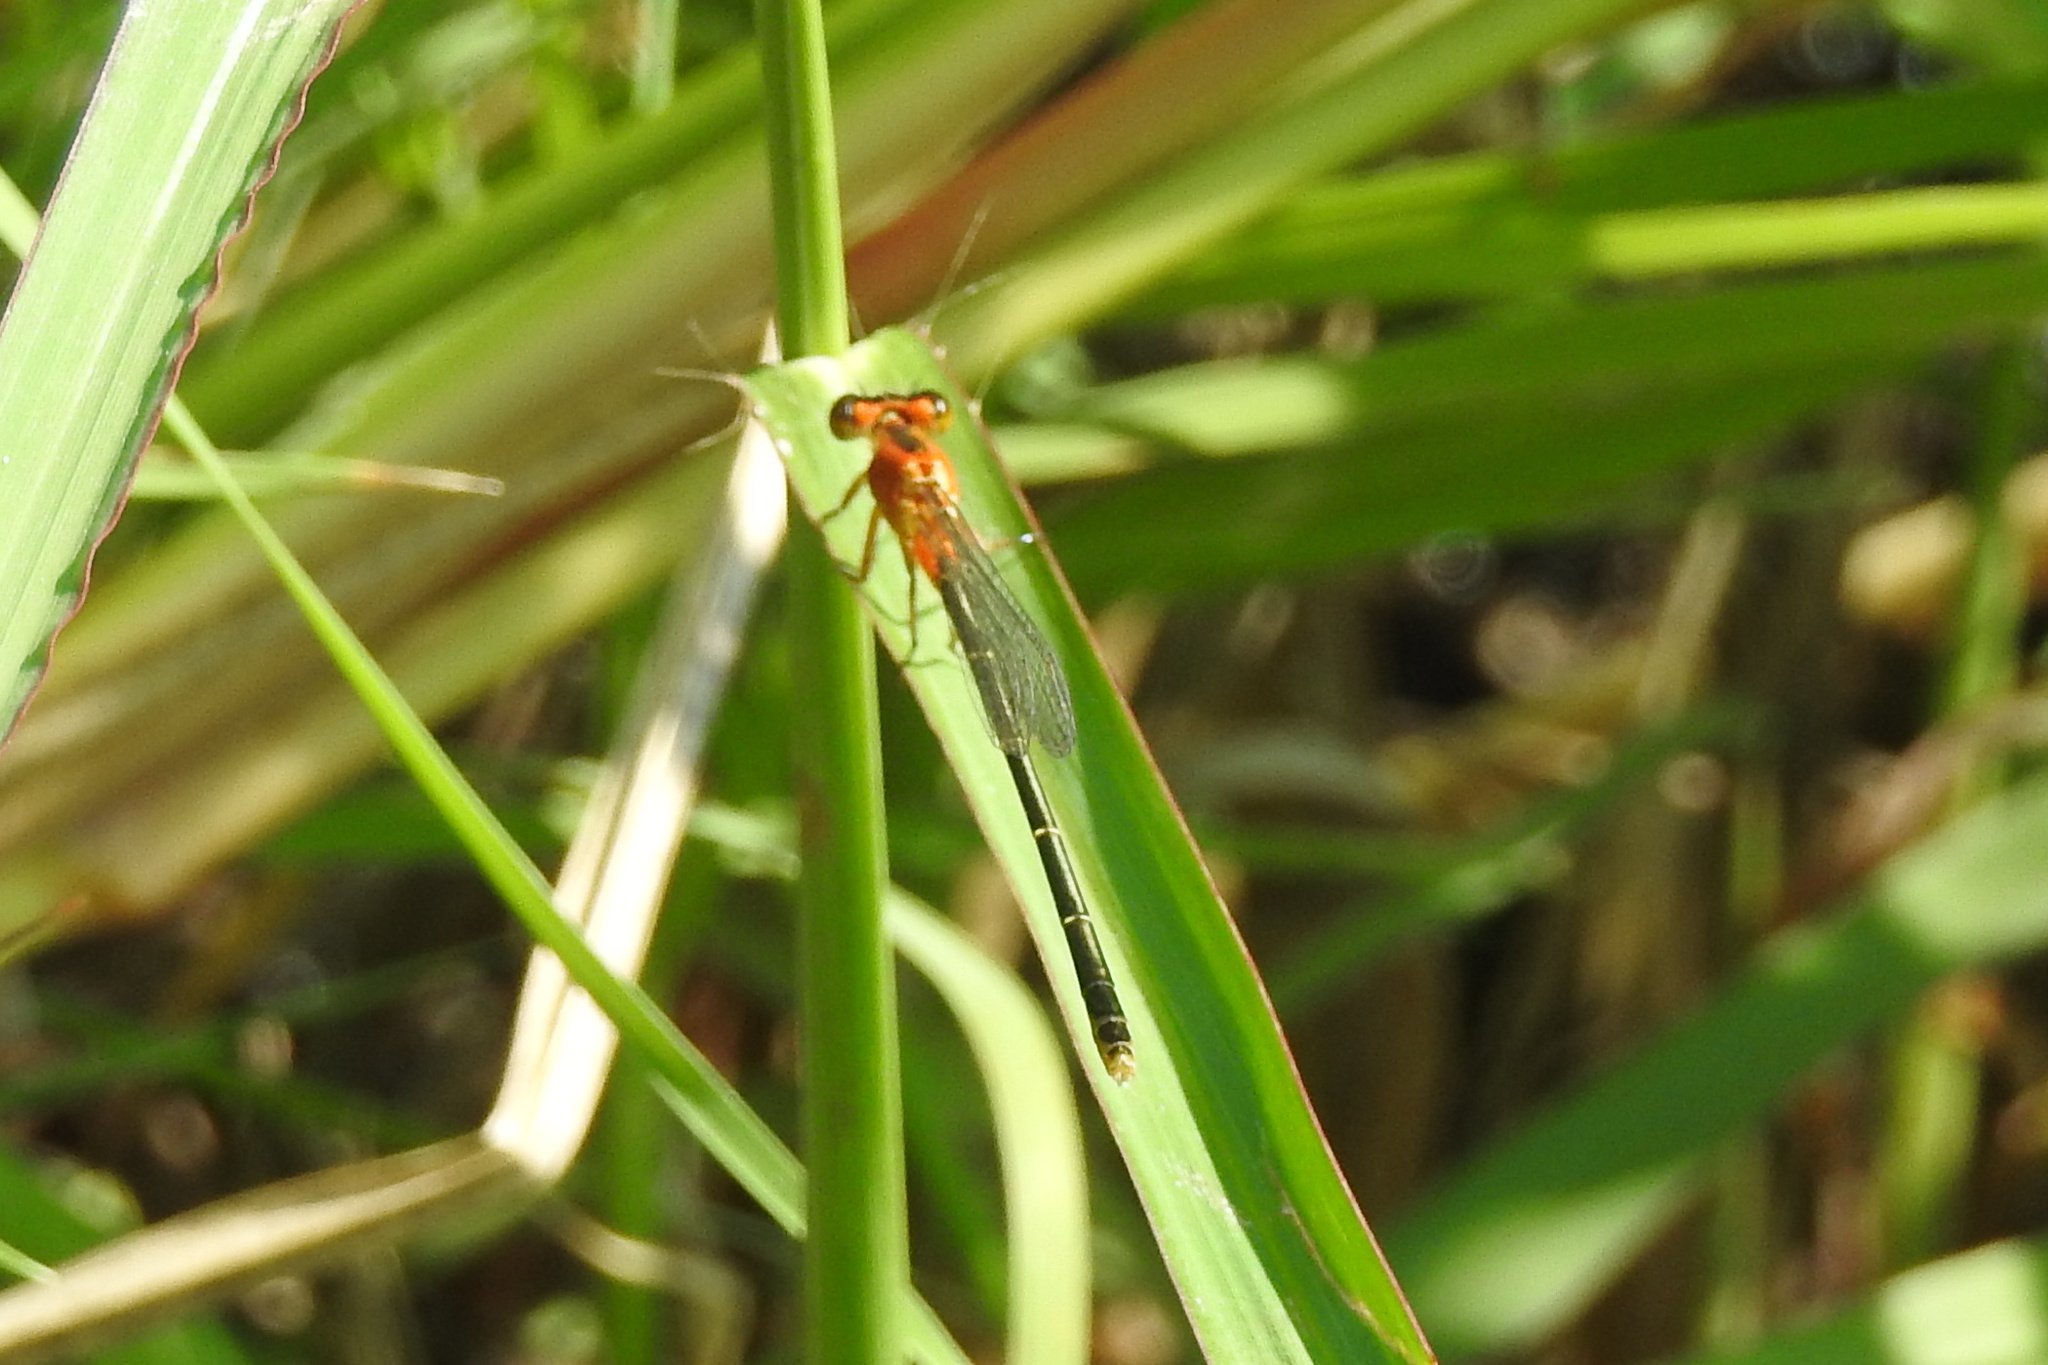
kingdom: Animalia
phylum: Arthropoda
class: Insecta
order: Odonata
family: Coenagrionidae
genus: Ischnura
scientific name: Ischnura ramburii
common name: Rambur's forktail
